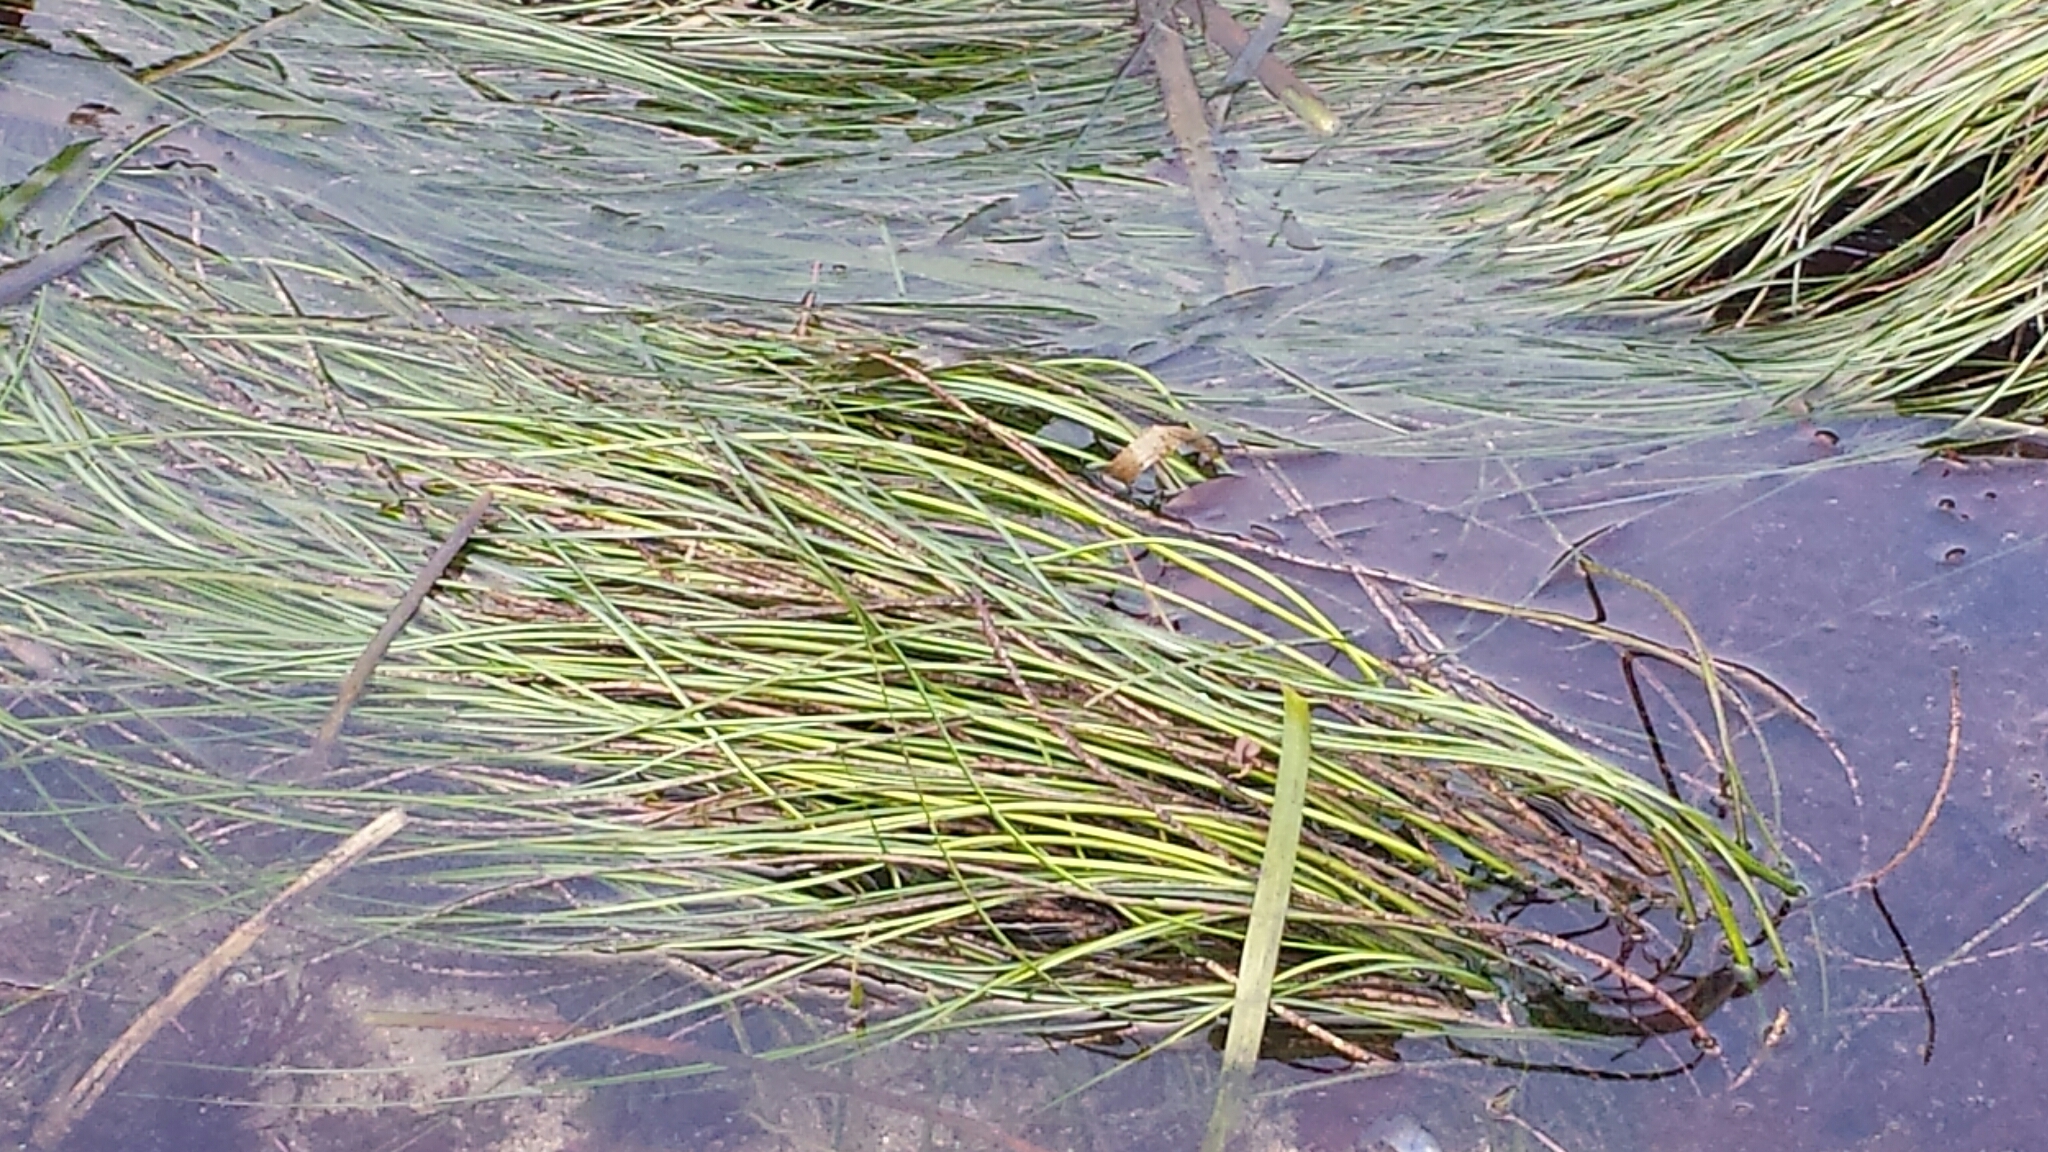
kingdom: Plantae
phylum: Tracheophyta
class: Liliopsida
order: Alismatales
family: Zosteraceae
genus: Phyllospadix
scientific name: Phyllospadix torreyi
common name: Surfgrass
